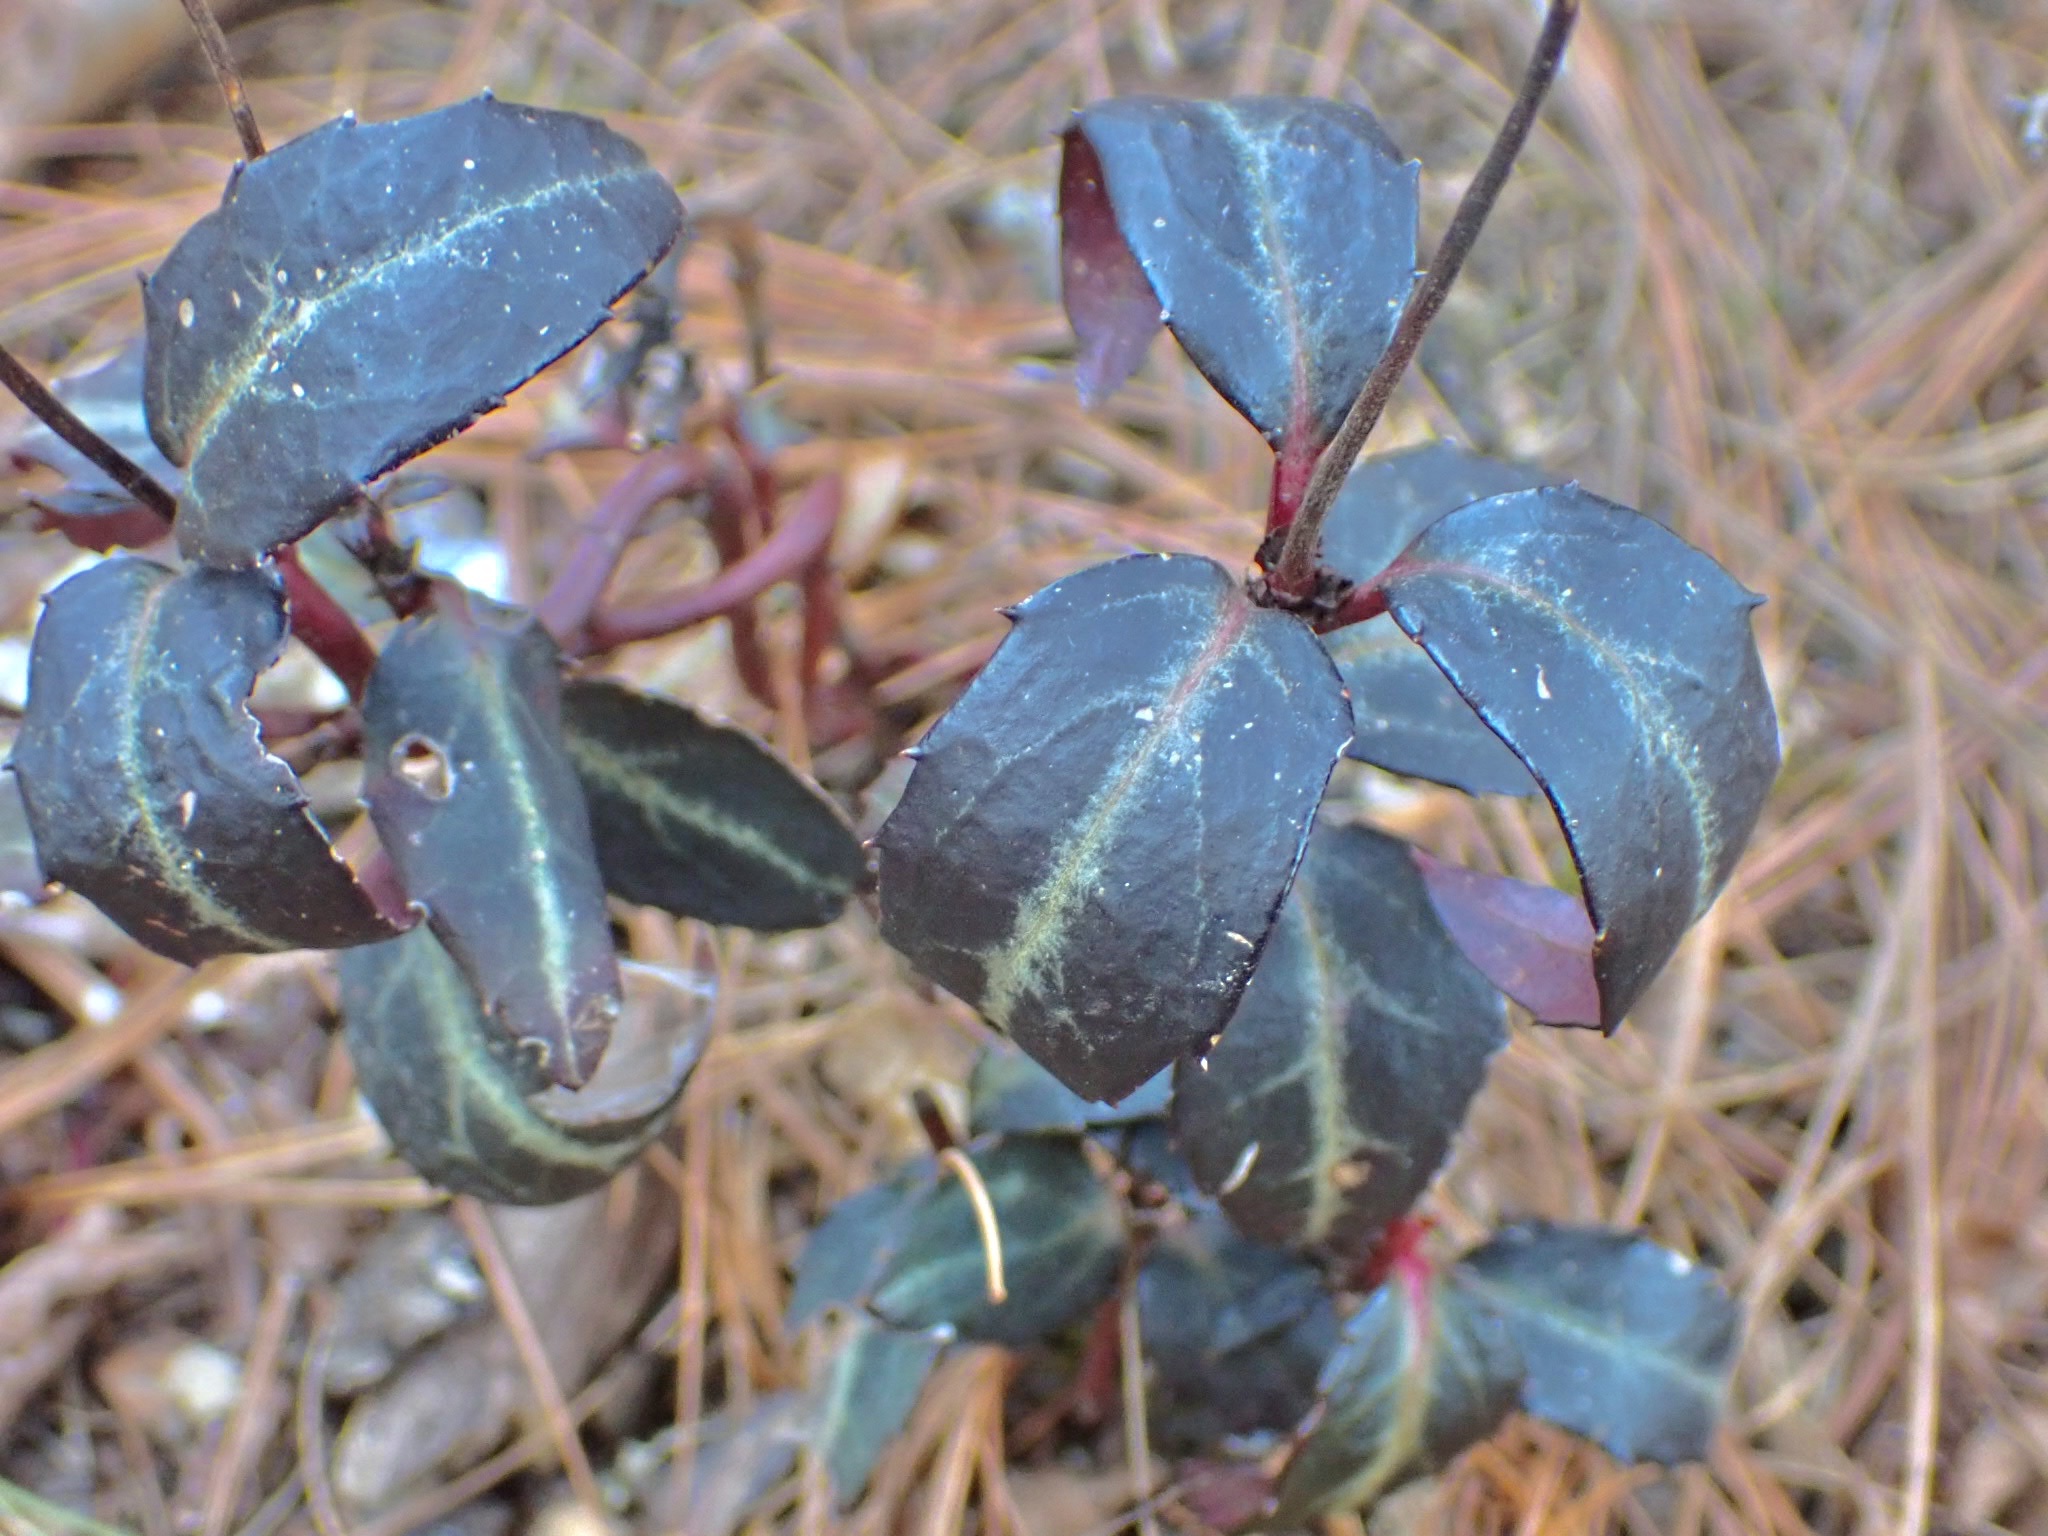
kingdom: Plantae
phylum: Tracheophyta
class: Magnoliopsida
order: Ericales
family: Ericaceae
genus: Chimaphila
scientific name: Chimaphila maculata
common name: Spotted pipsissewa
